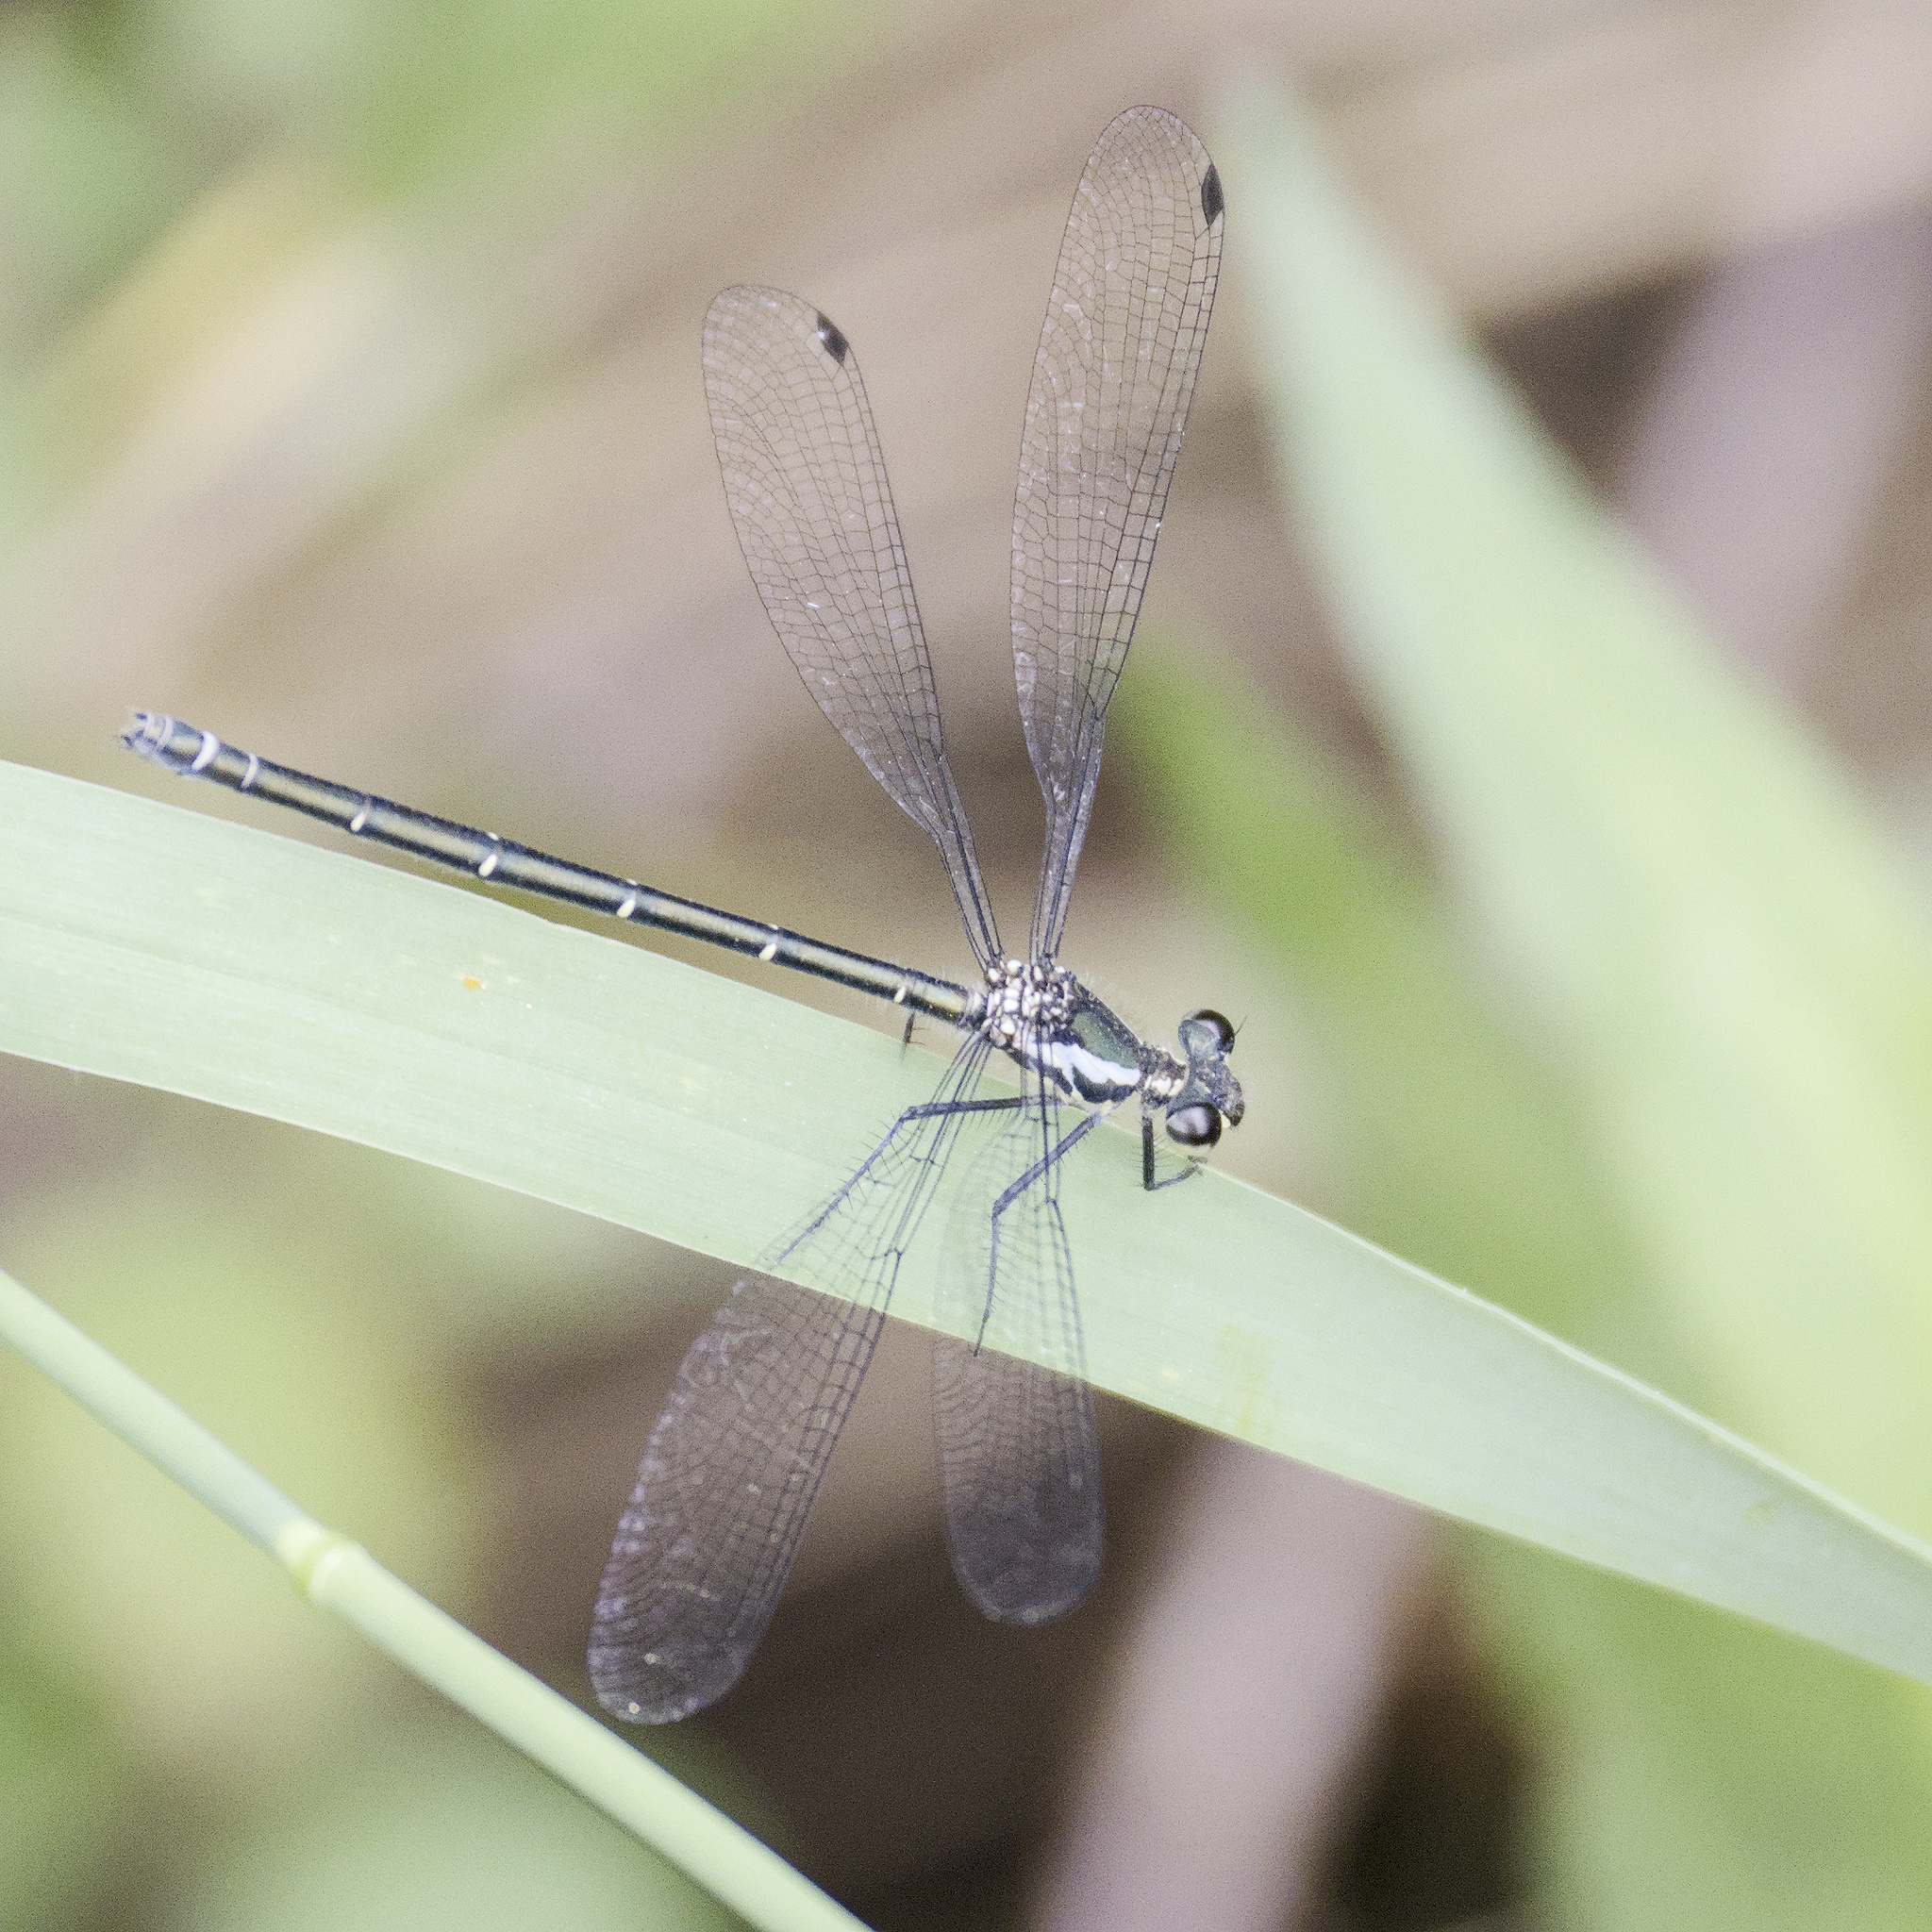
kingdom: Animalia
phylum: Arthropoda
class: Insecta
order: Odonata
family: Argiolestidae
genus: Austroargiolestes
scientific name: Austroargiolestes icteromelas
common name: Common flatwing
